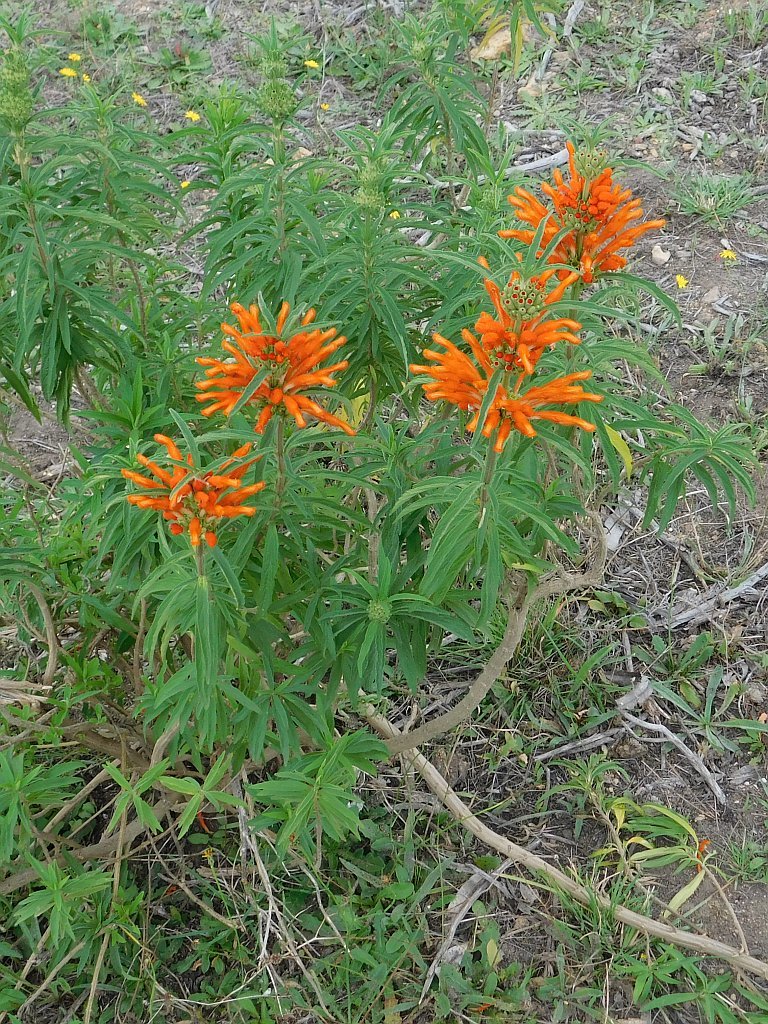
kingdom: Plantae
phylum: Tracheophyta
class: Magnoliopsida
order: Lamiales
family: Lamiaceae
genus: Leonotis
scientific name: Leonotis leonurus
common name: Lion's ear
